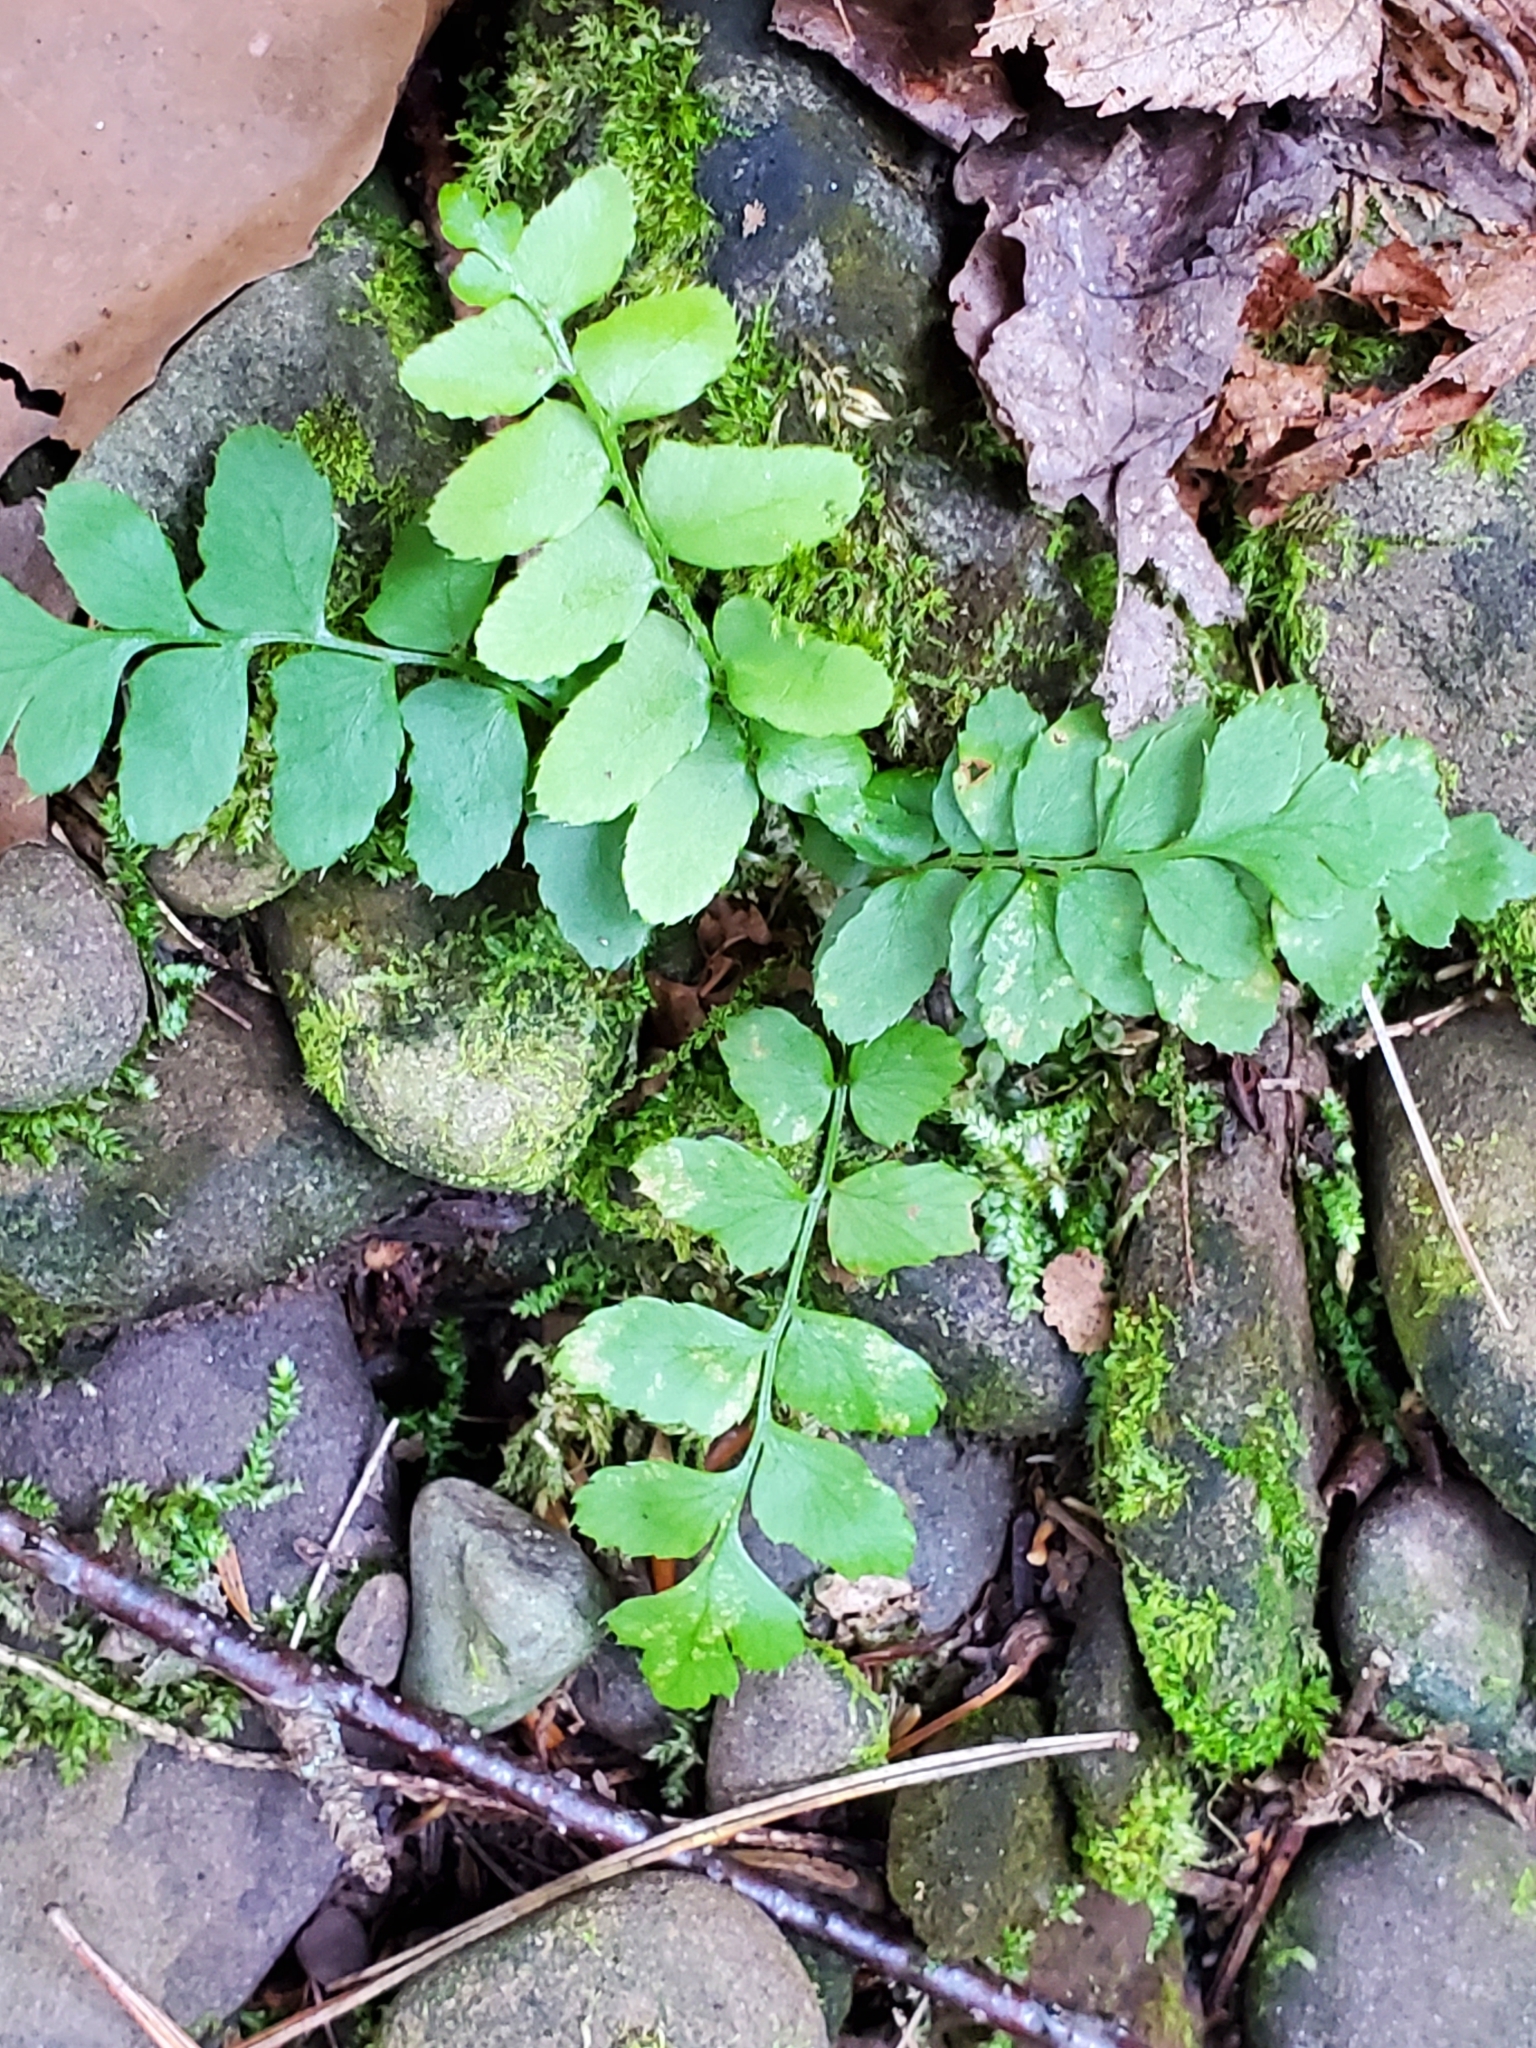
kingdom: Plantae
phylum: Tracheophyta
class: Polypodiopsida
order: Polypodiales
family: Dryopteridaceae
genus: Polystichum
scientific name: Polystichum acrostichoides
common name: Christmas fern
